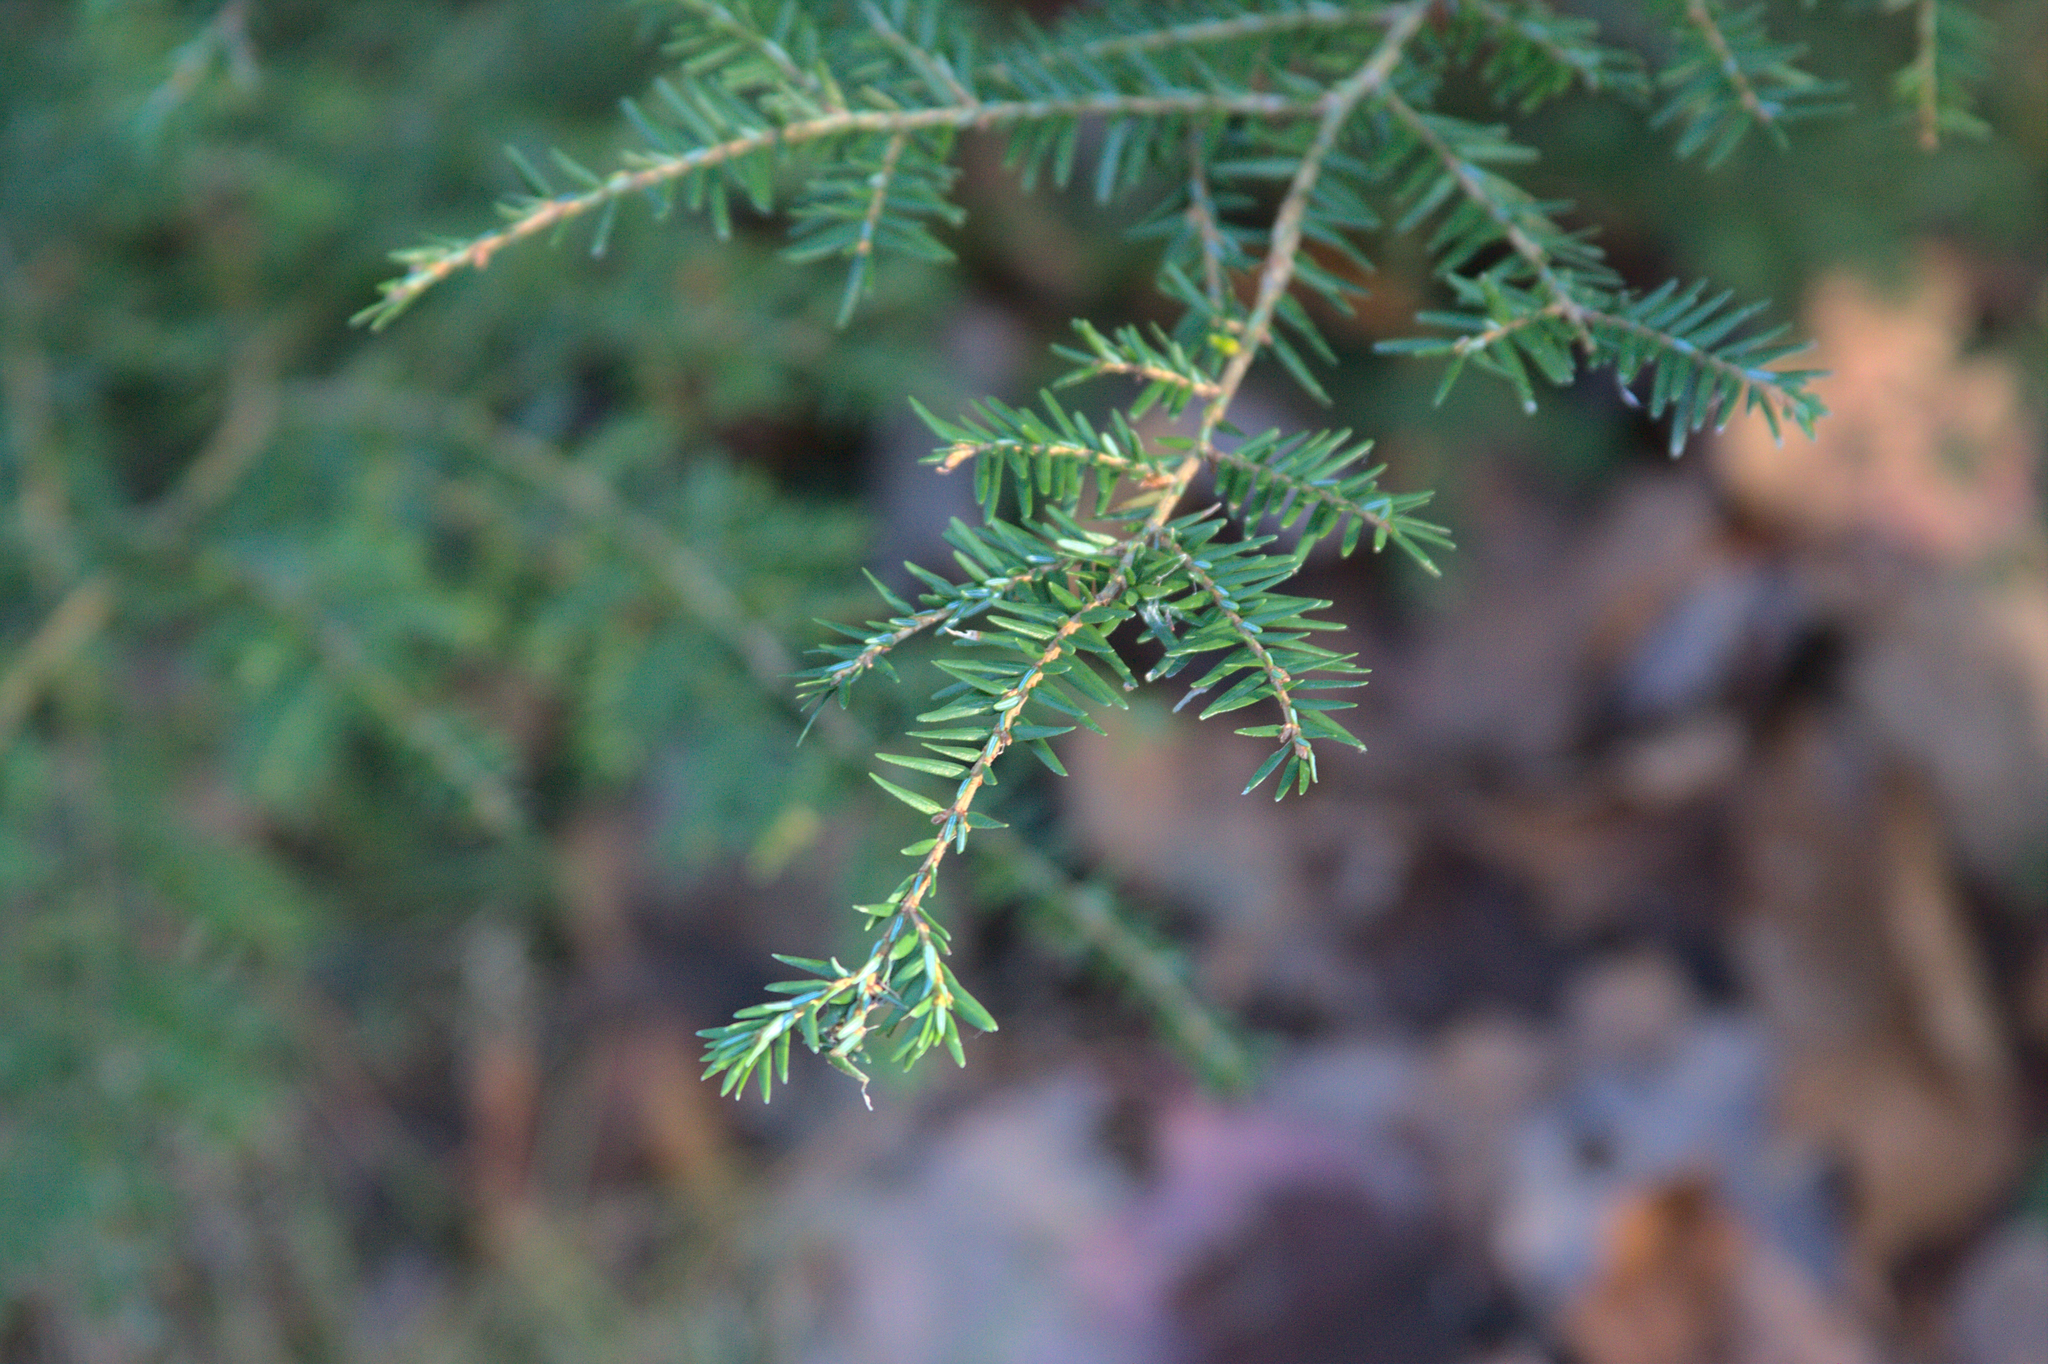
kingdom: Plantae
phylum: Tracheophyta
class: Pinopsida
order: Pinales
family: Pinaceae
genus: Tsuga
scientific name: Tsuga canadensis
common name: Eastern hemlock
